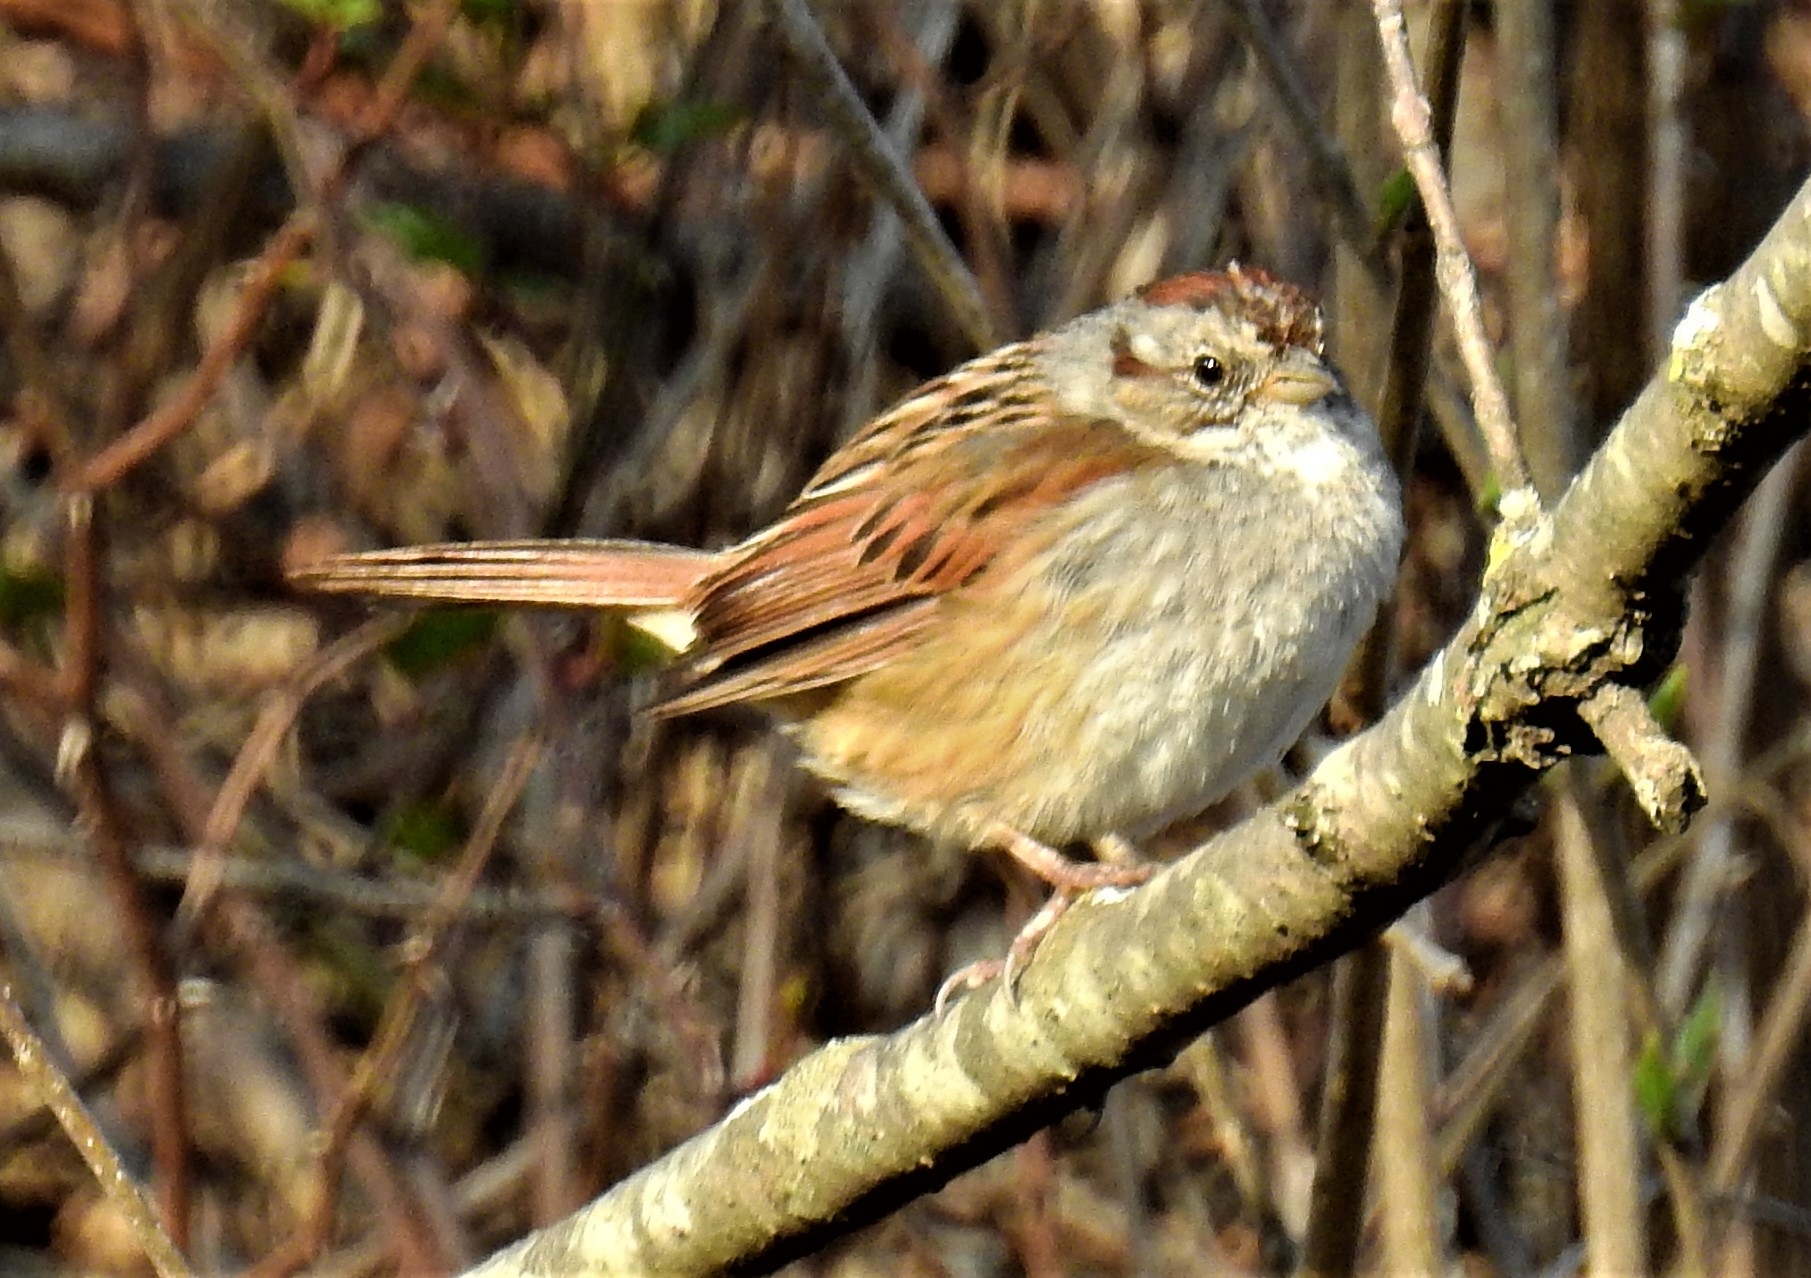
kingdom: Animalia
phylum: Chordata
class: Aves
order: Passeriformes
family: Passerellidae
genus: Melospiza
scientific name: Melospiza georgiana
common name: Swamp sparrow
